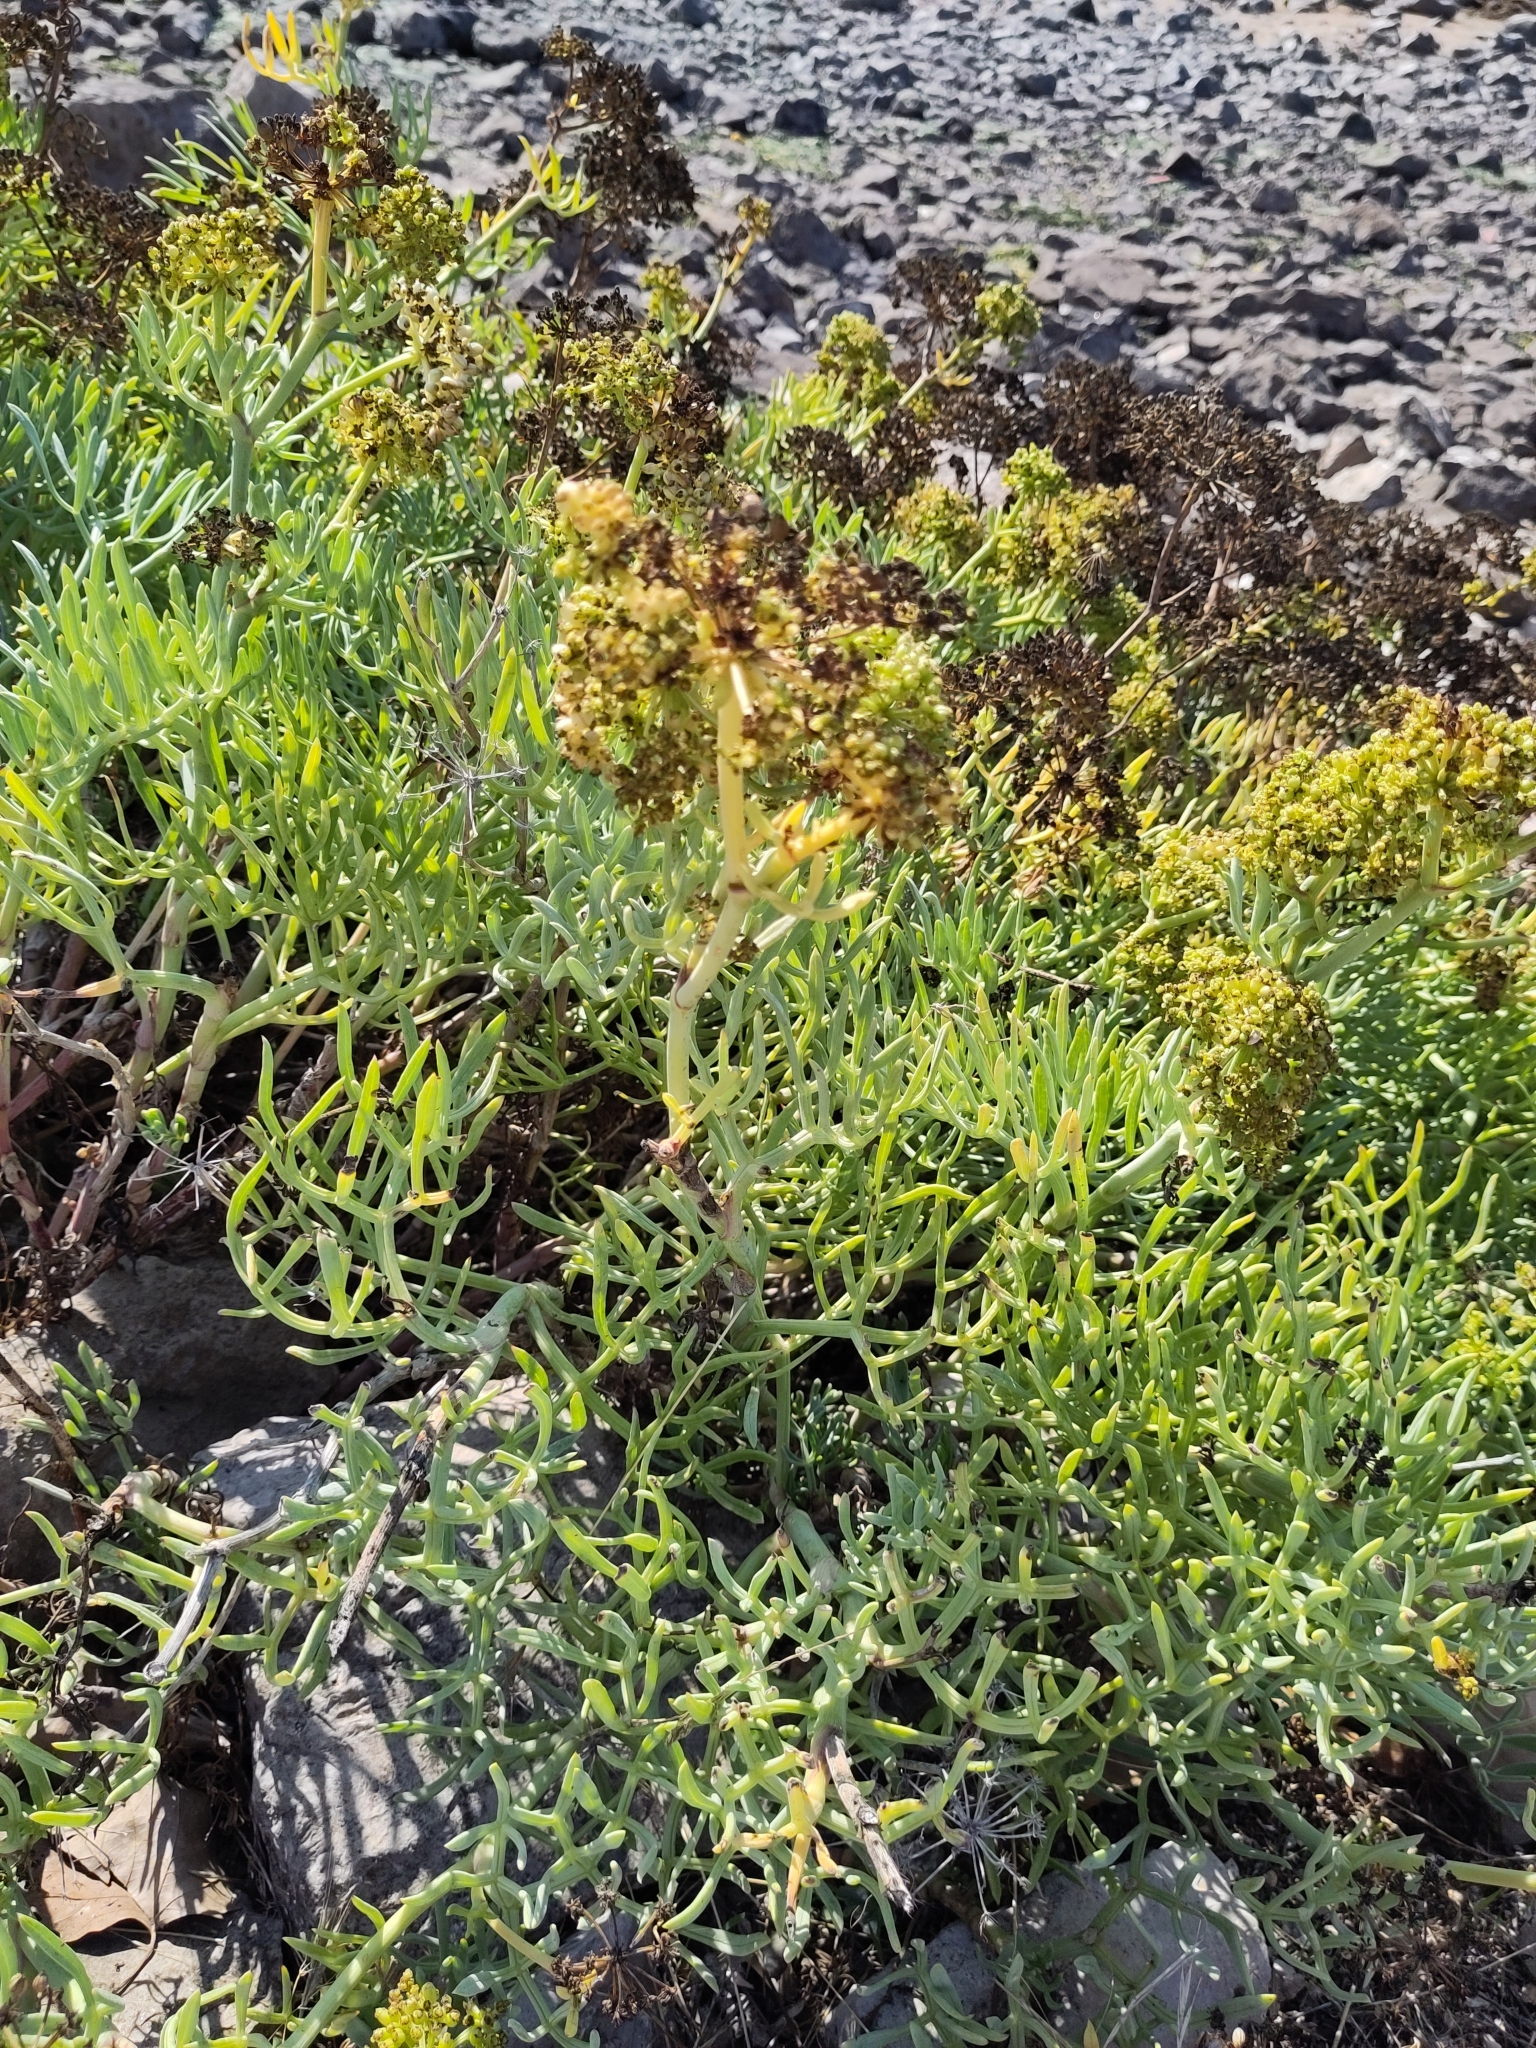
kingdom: Plantae
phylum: Tracheophyta
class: Magnoliopsida
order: Apiales
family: Apiaceae
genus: Crithmum
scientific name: Crithmum maritimum
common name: Rock samphire
